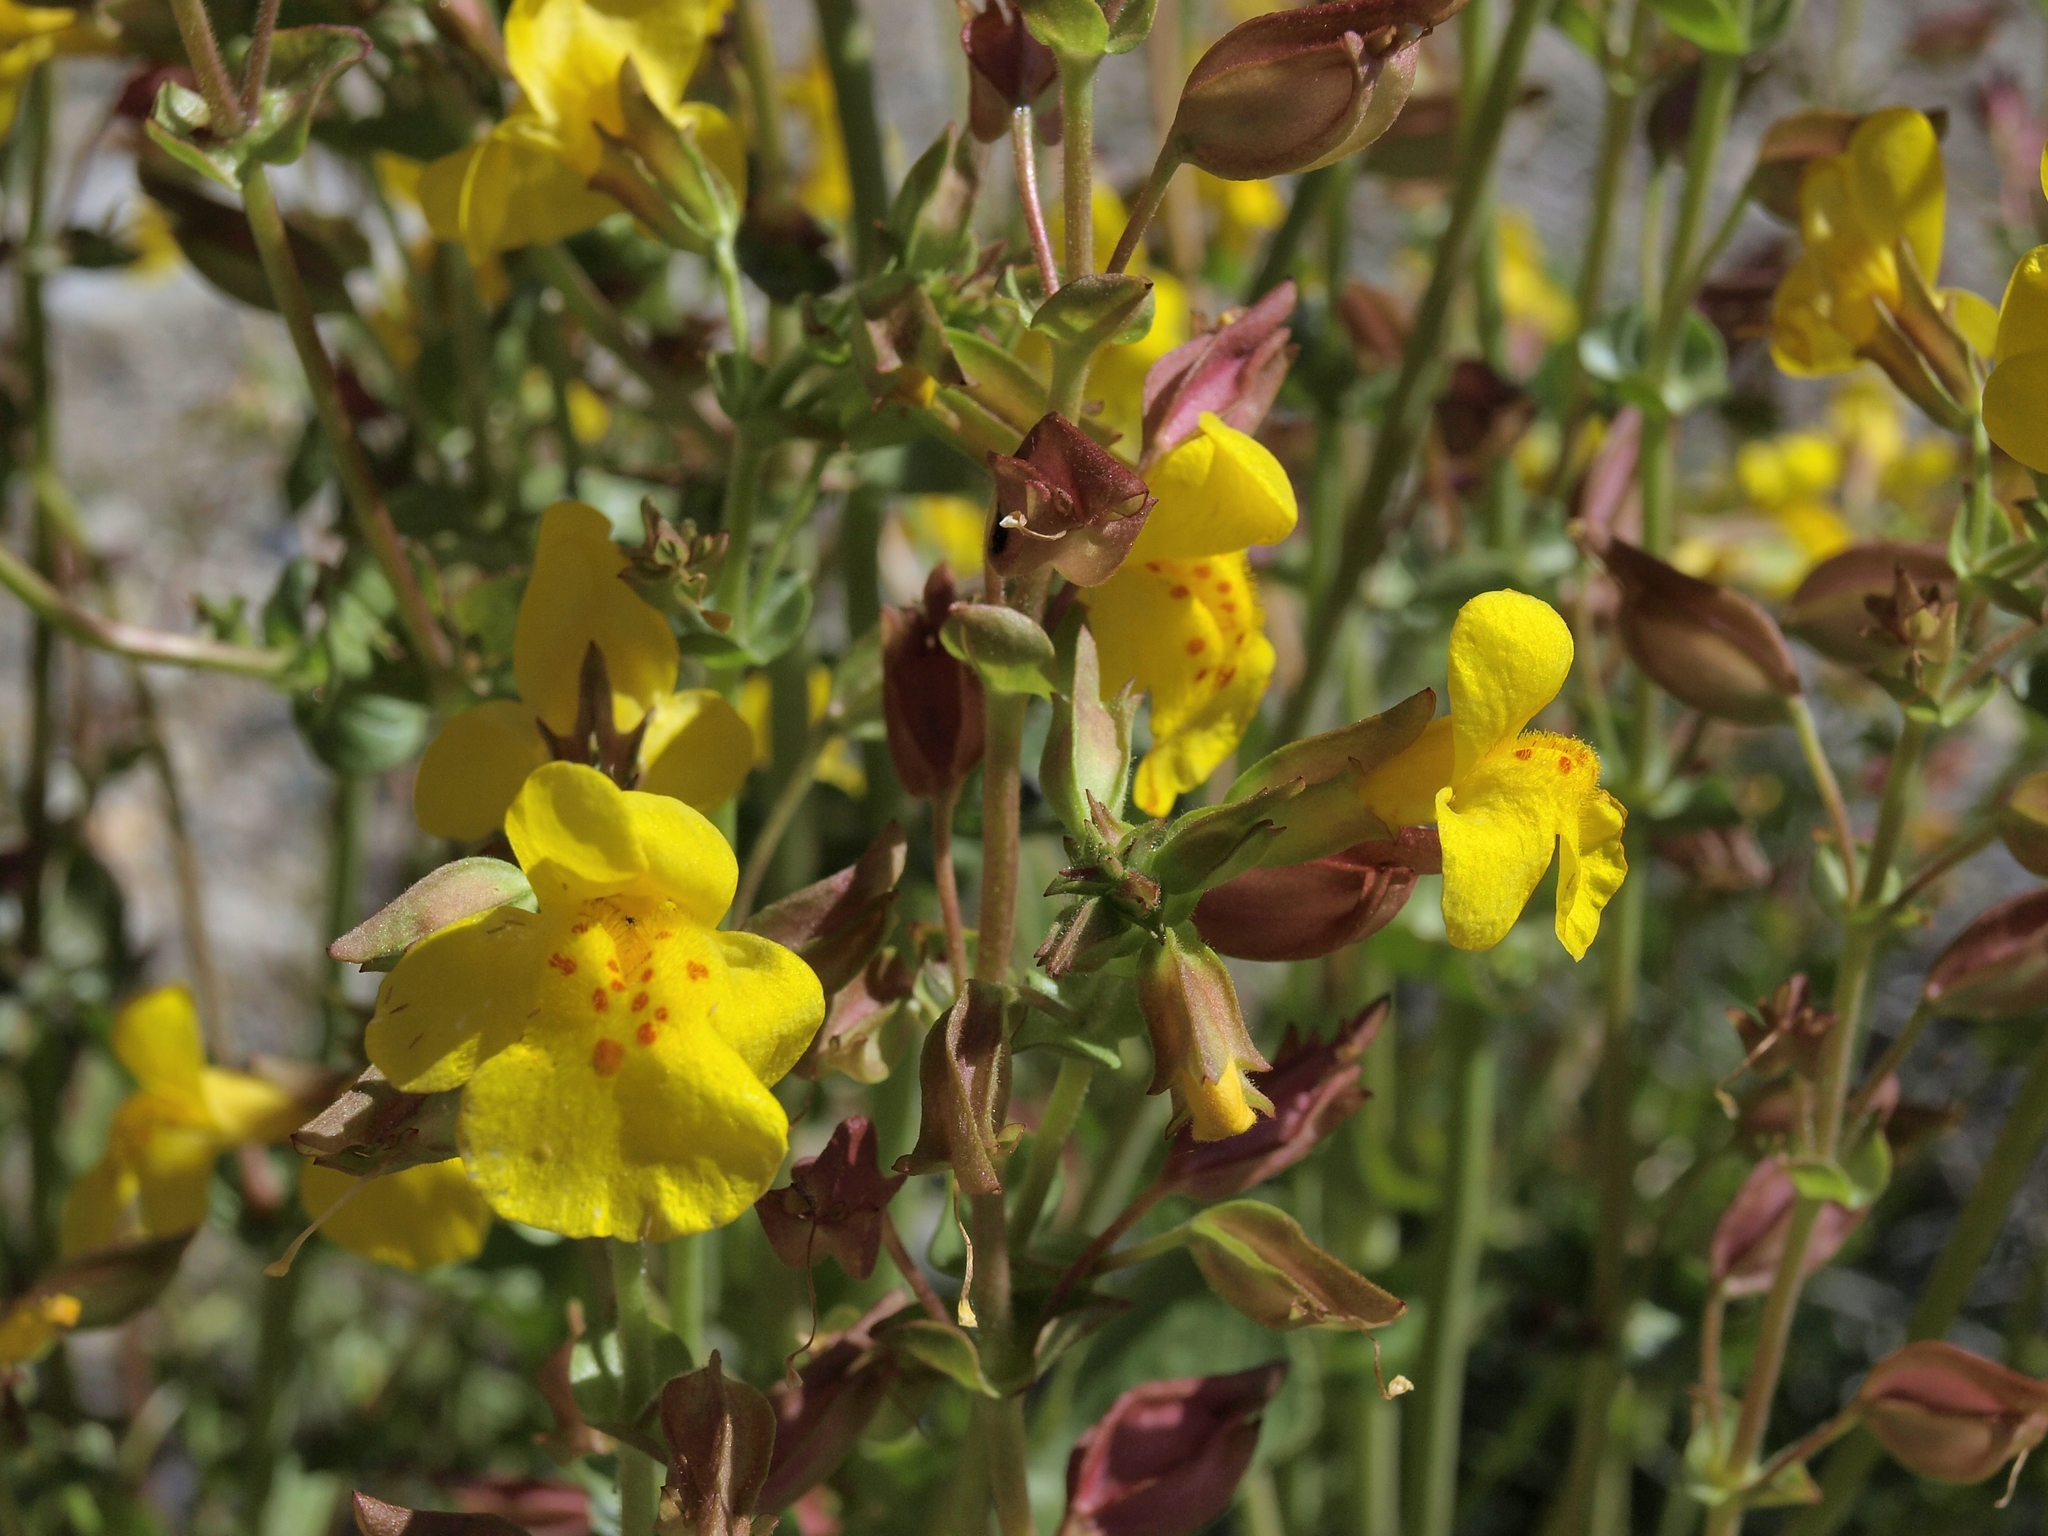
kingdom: Plantae
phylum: Tracheophyta
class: Magnoliopsida
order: Lamiales
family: Phrymaceae
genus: Erythranthe
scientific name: Erythranthe guttata
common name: Monkeyflower
